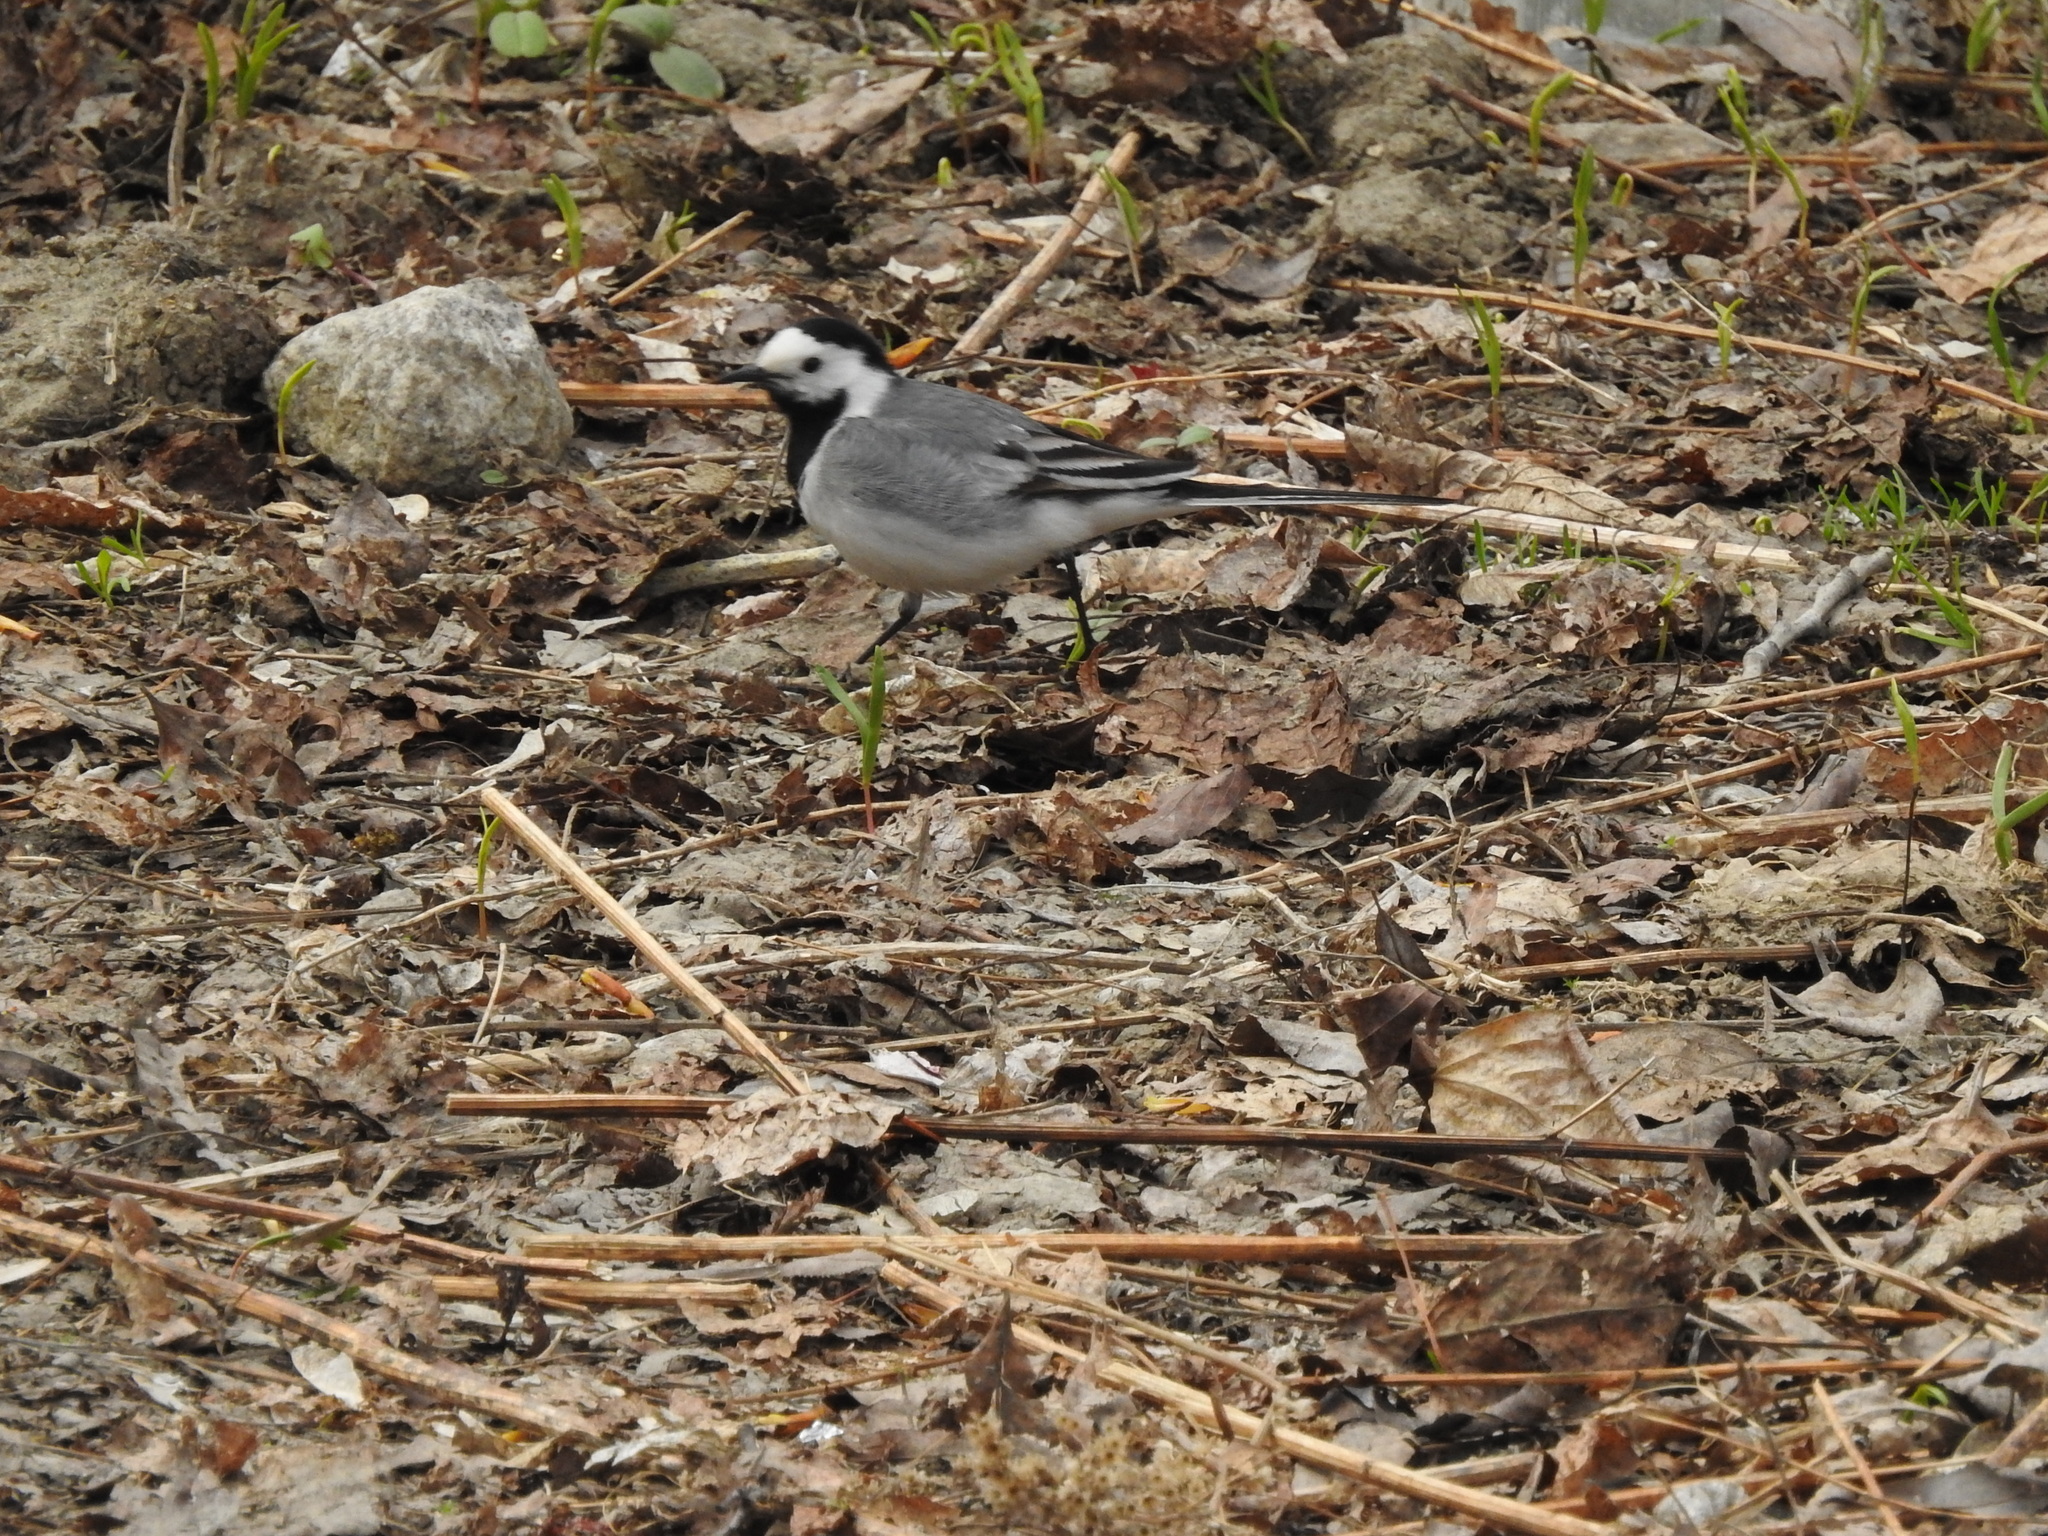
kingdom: Animalia
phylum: Chordata
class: Aves
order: Passeriformes
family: Motacillidae
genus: Motacilla
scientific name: Motacilla alba
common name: White wagtail
